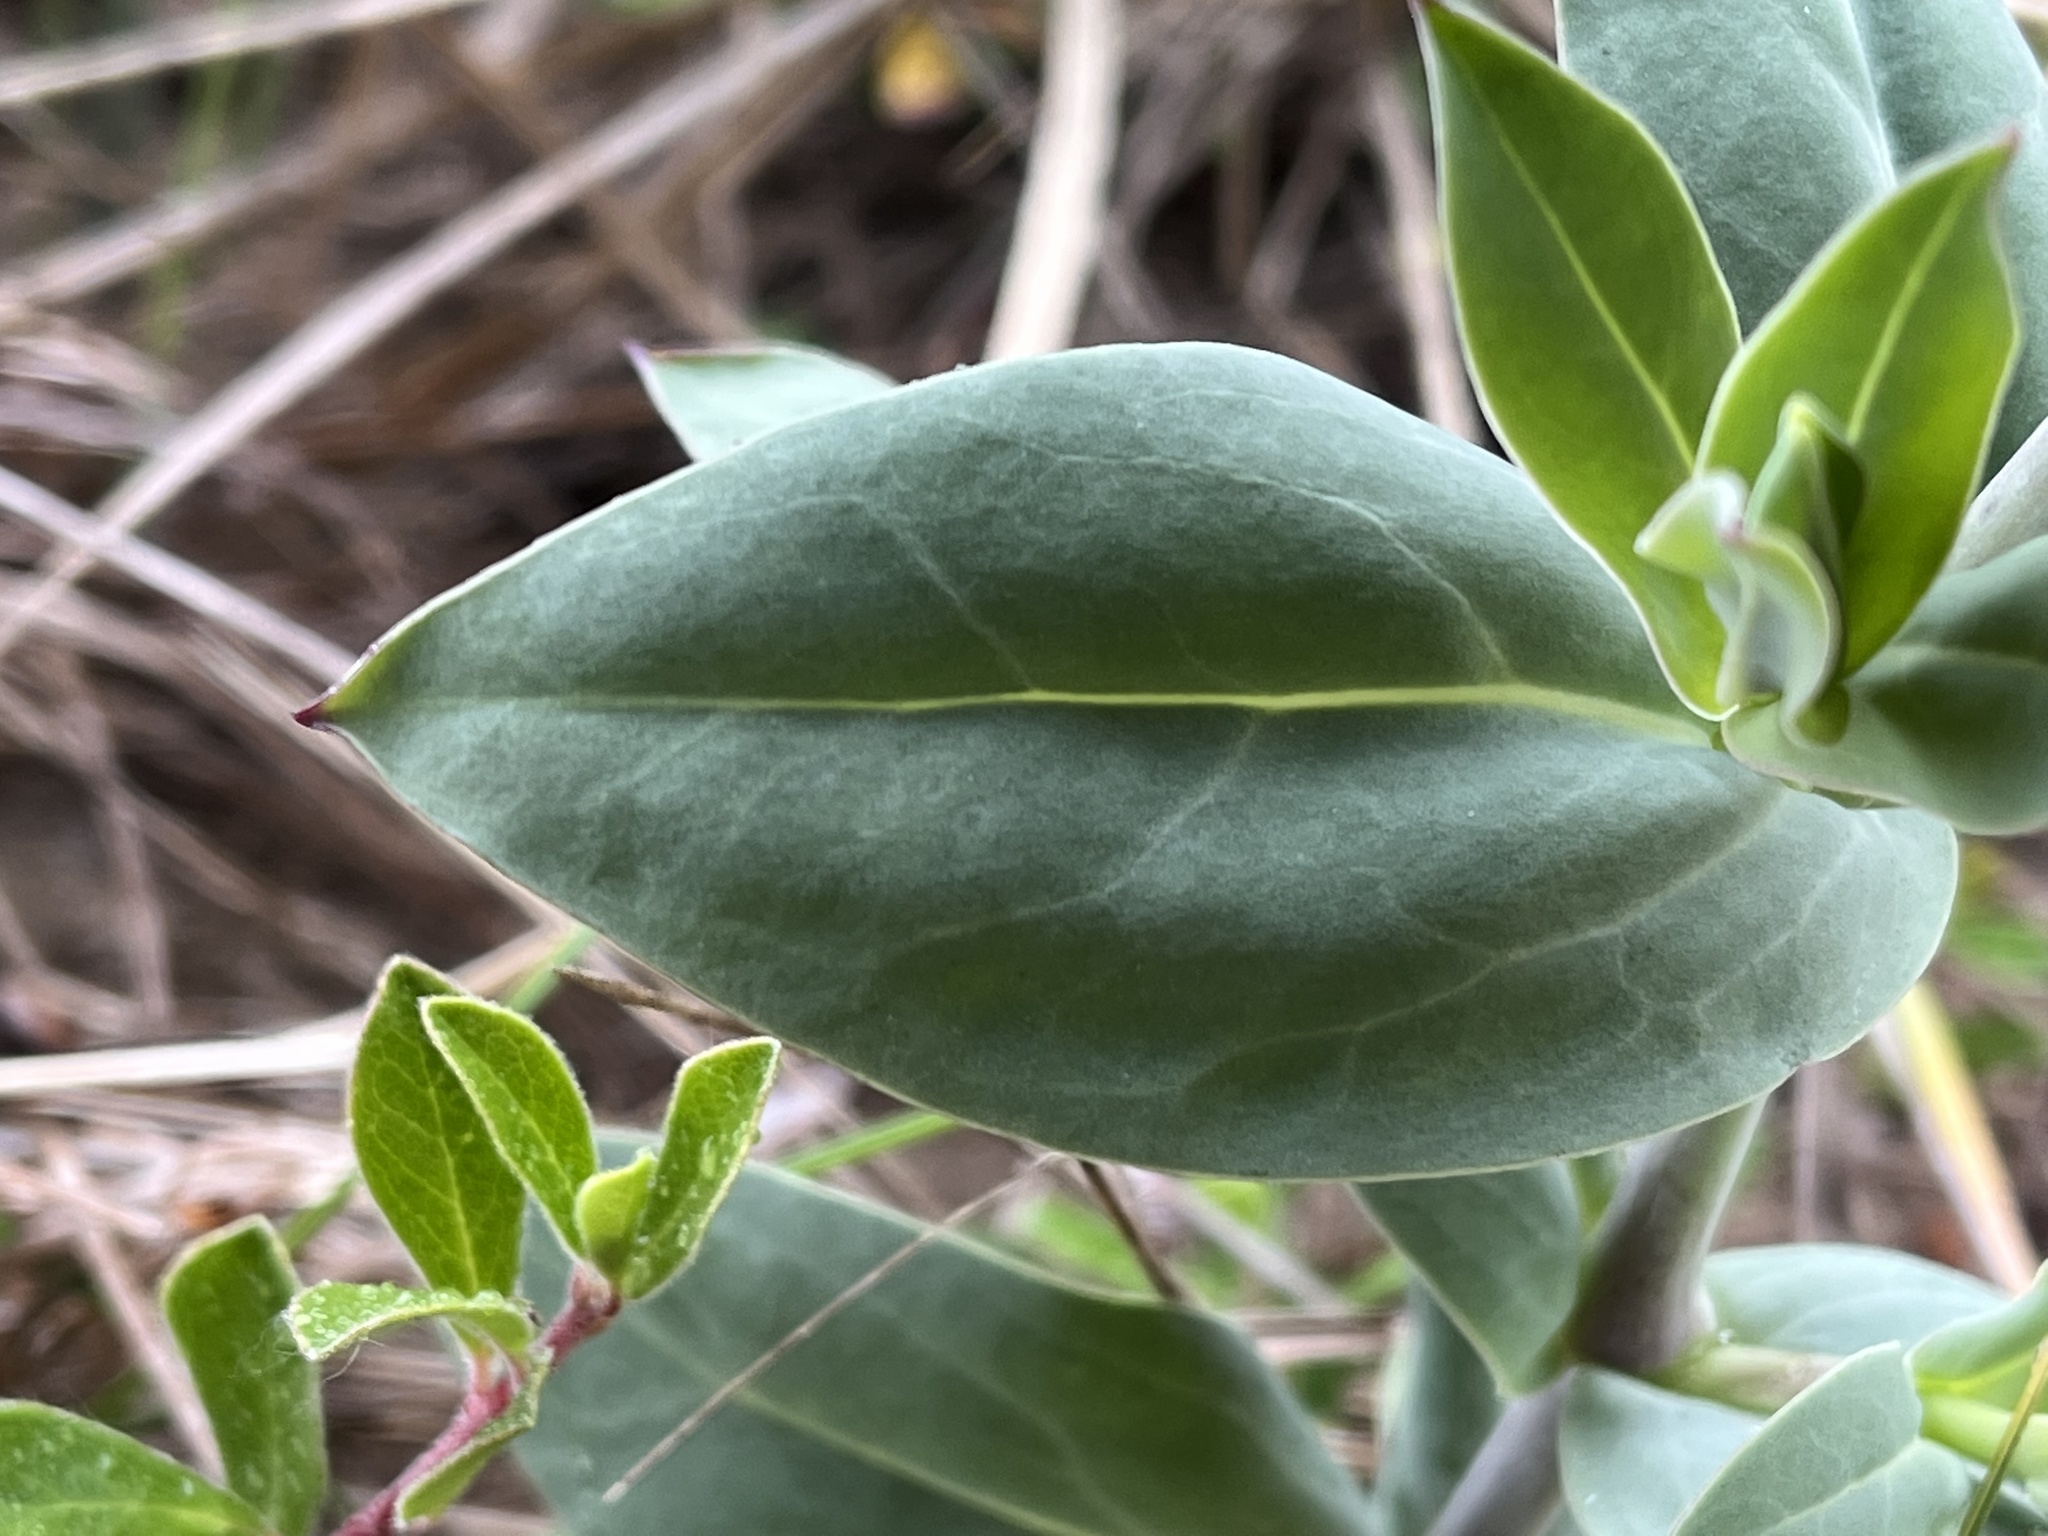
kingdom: Plantae
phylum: Tracheophyta
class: Magnoliopsida
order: Caryophyllales
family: Caryophyllaceae
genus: Silene
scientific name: Silene csereii
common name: Balkan catchfly
